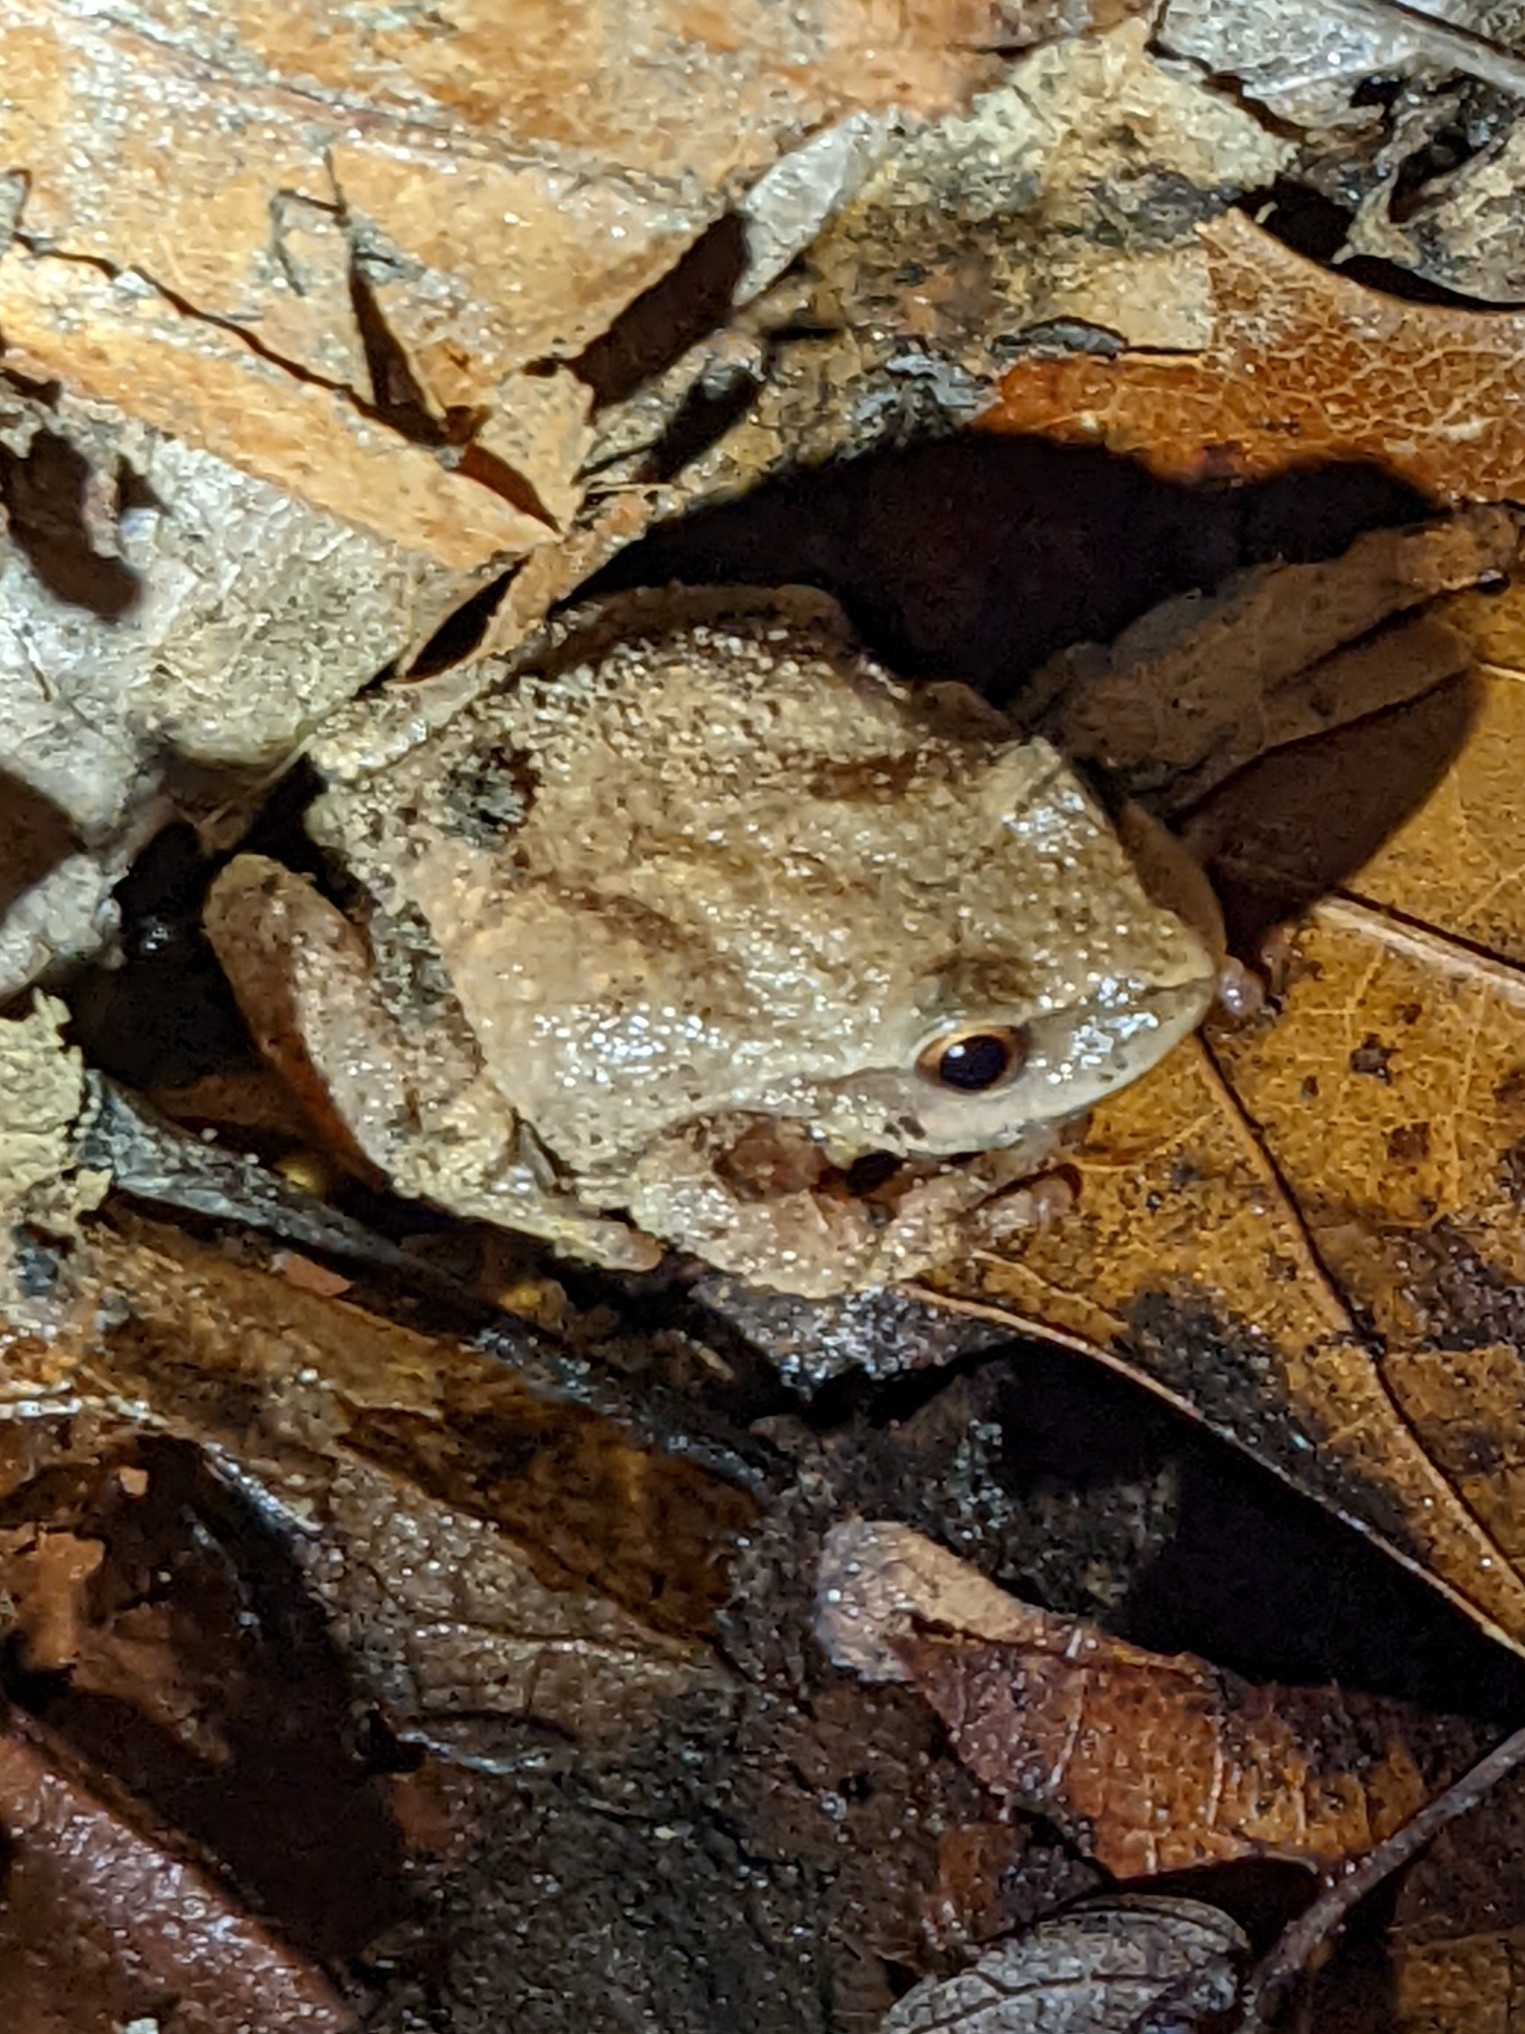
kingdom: Animalia
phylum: Chordata
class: Amphibia
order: Anura
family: Hylidae
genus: Pseudacris
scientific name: Pseudacris crucifer
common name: Spring peeper
